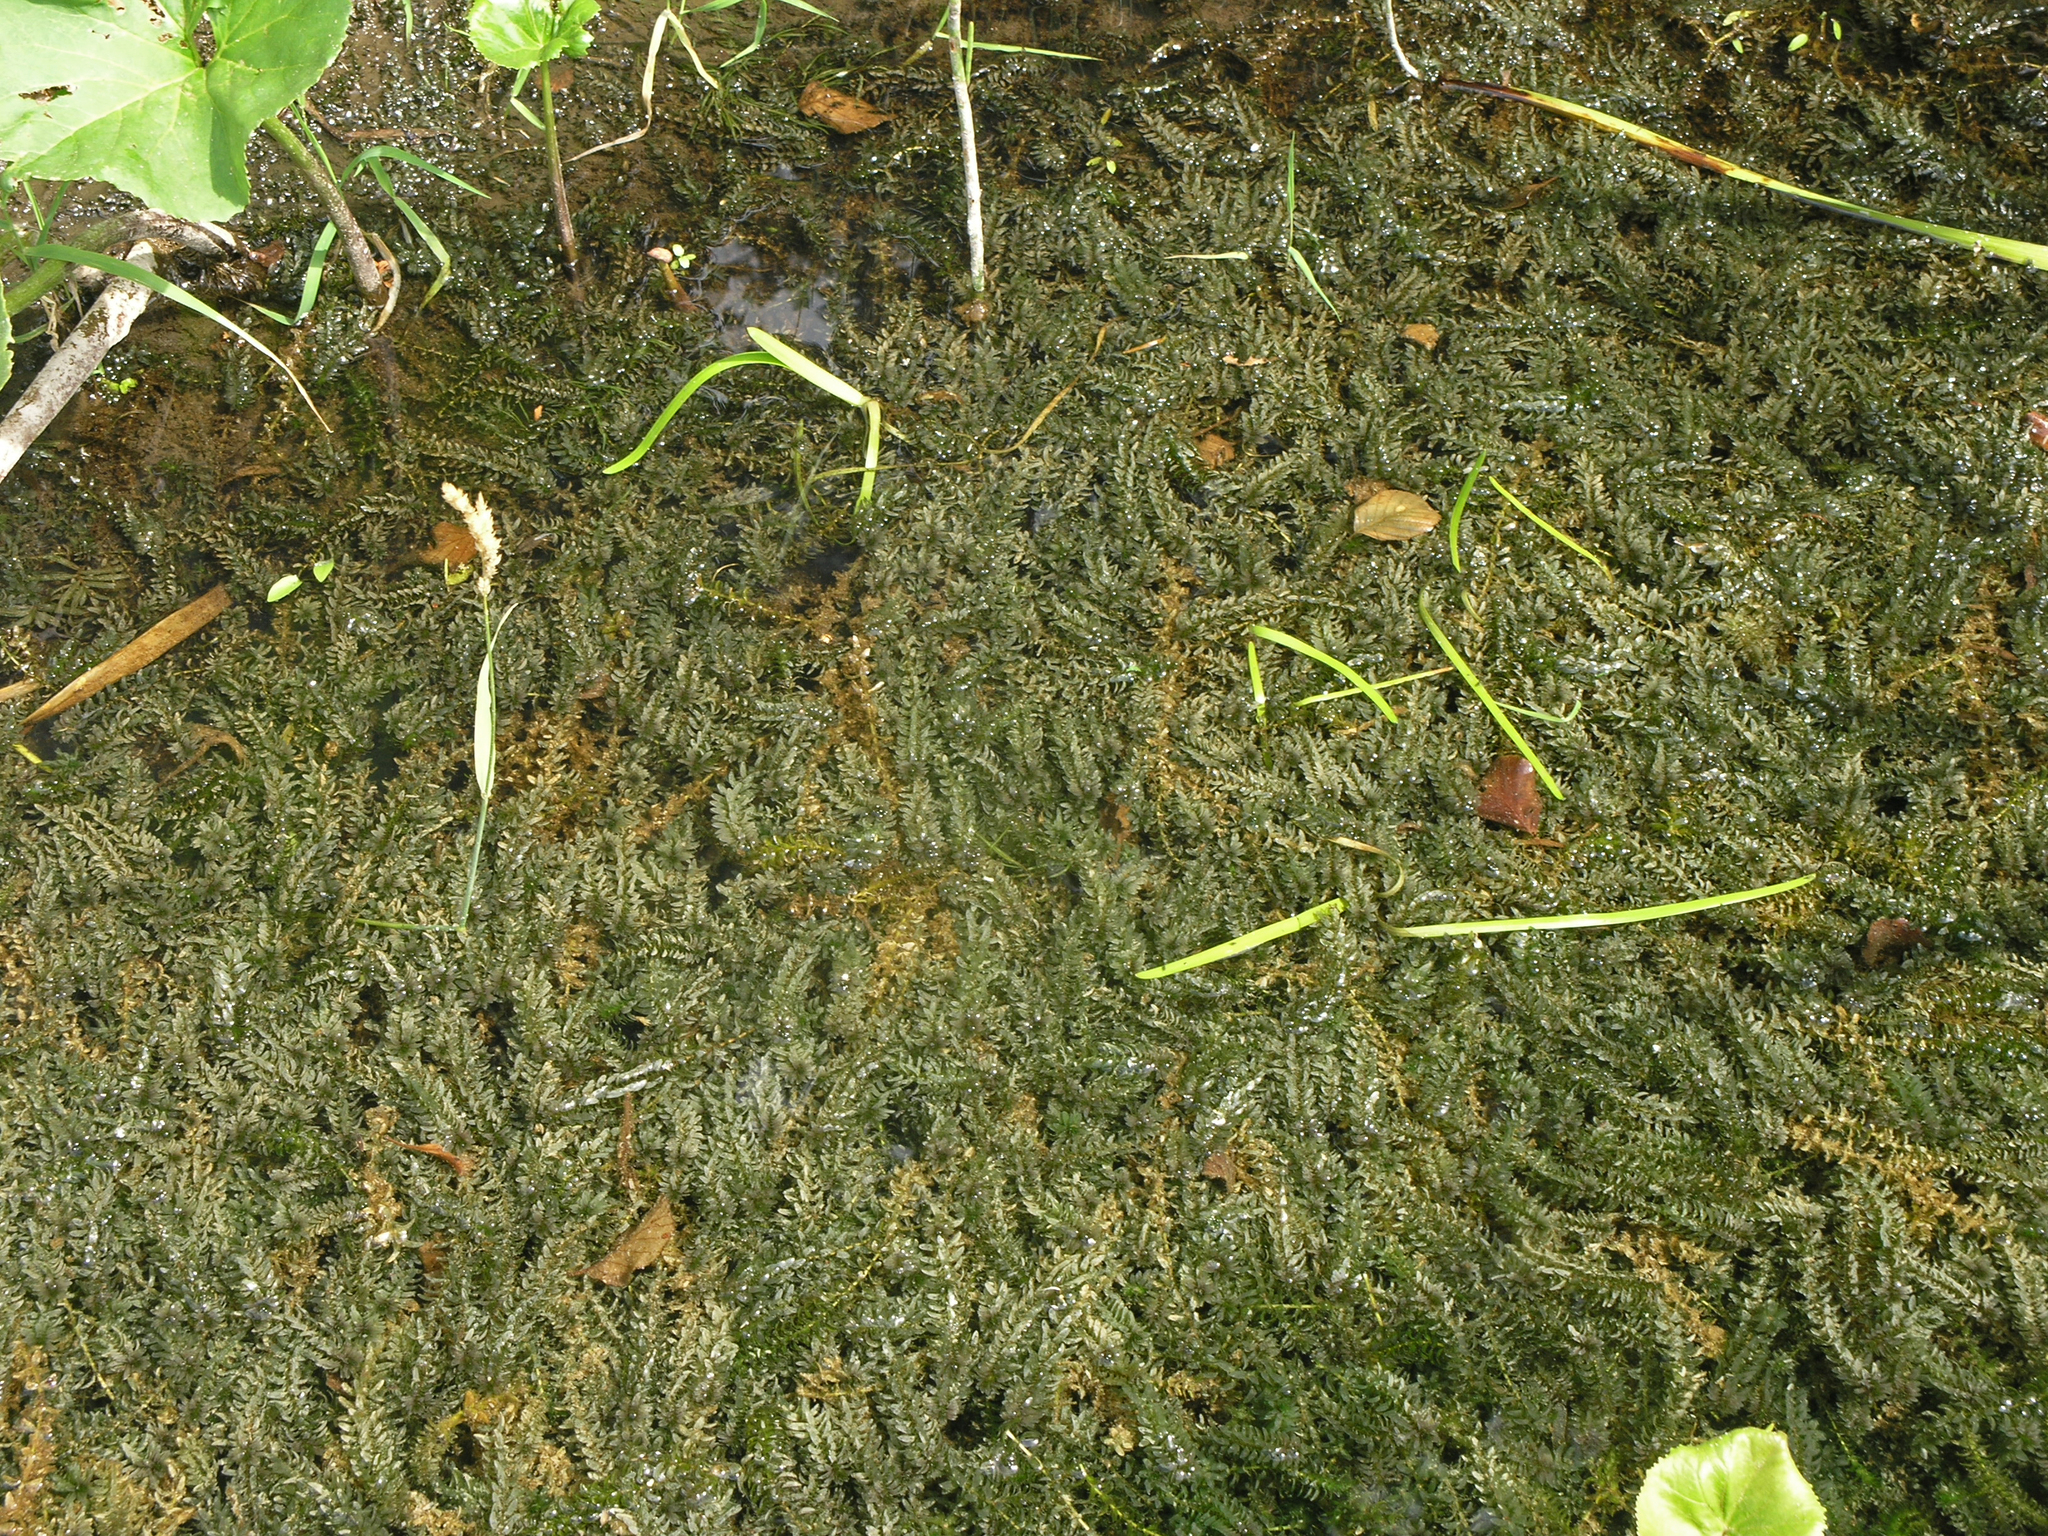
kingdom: Plantae
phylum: Tracheophyta
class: Liliopsida
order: Alismatales
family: Hydrocharitaceae
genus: Elodea
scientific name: Elodea canadensis
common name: Canadian waterweed
